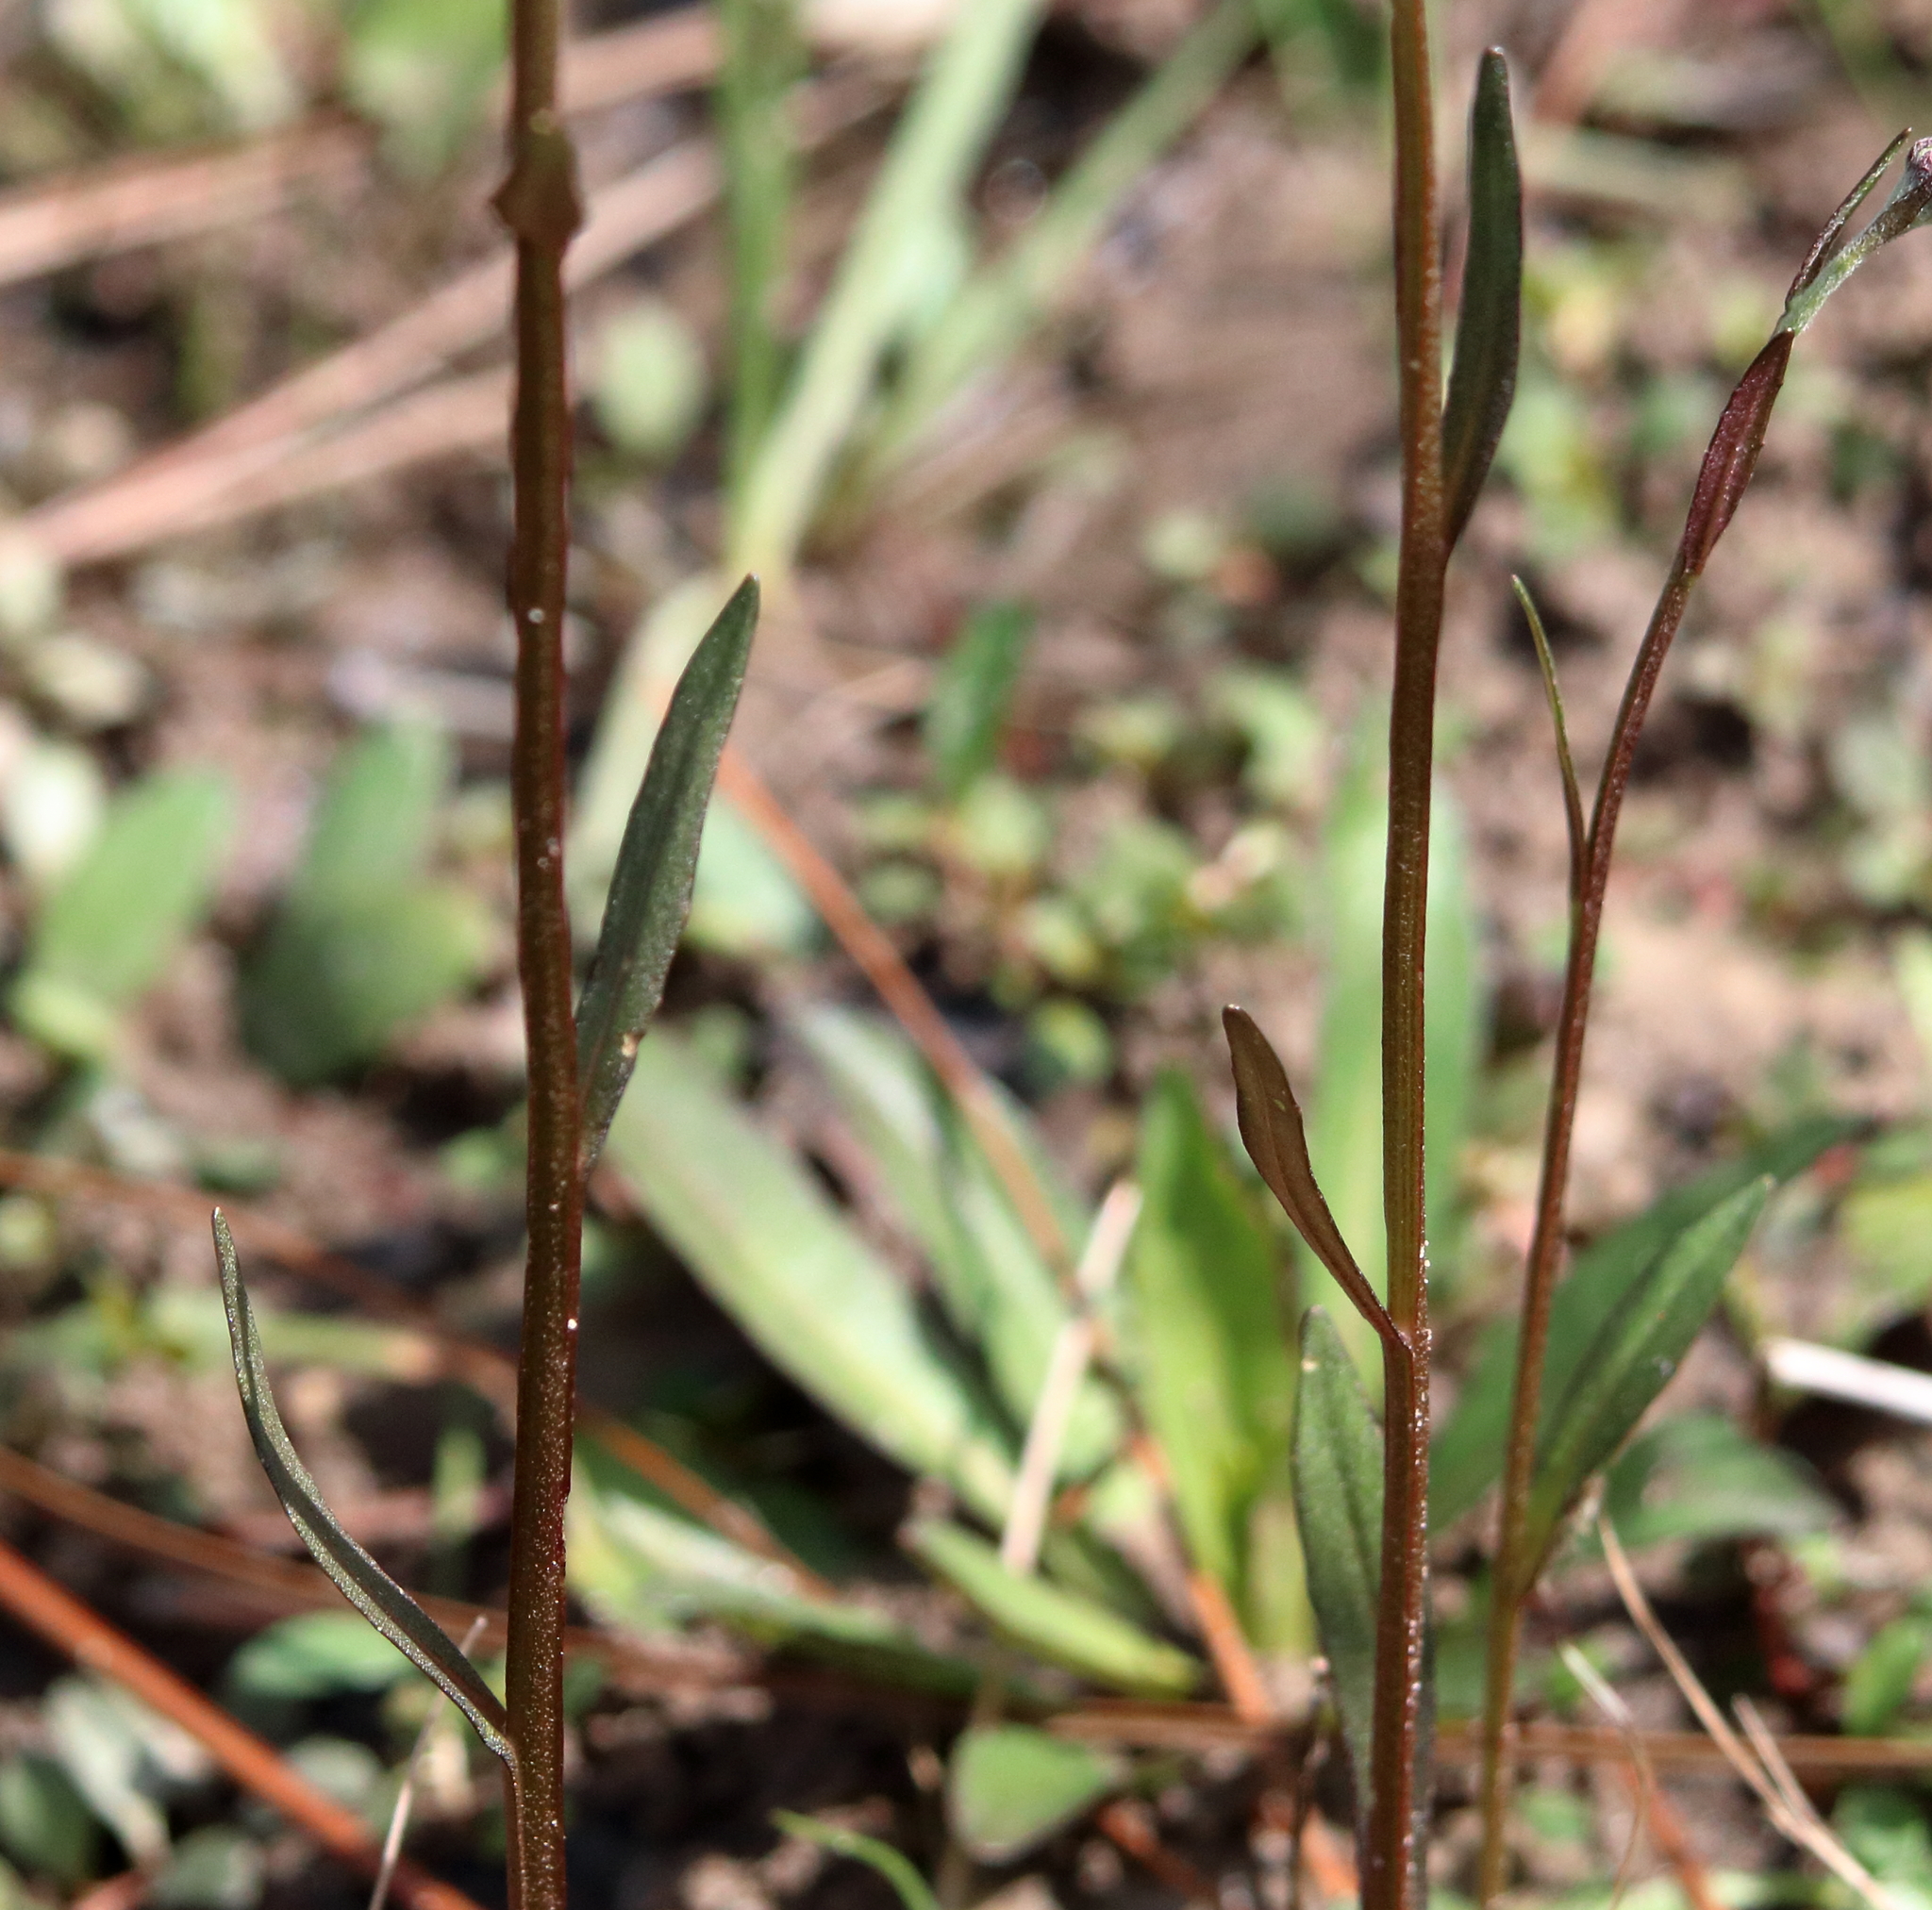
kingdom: Plantae
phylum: Tracheophyta
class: Magnoliopsida
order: Asterales
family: Asteraceae
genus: Helenium
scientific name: Helenium brevifolium
